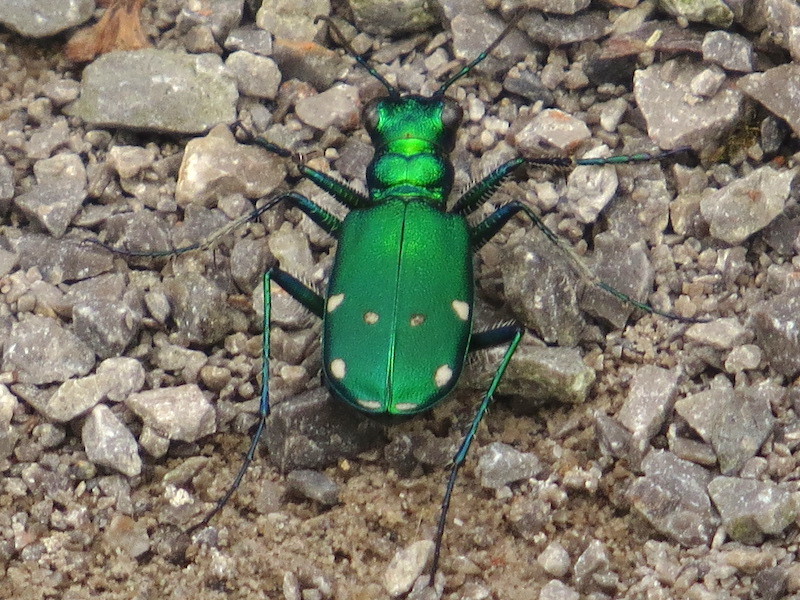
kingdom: Animalia
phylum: Arthropoda
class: Insecta
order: Coleoptera
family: Carabidae
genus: Cicindela
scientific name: Cicindela sexguttata
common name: Six-spotted tiger beetle
